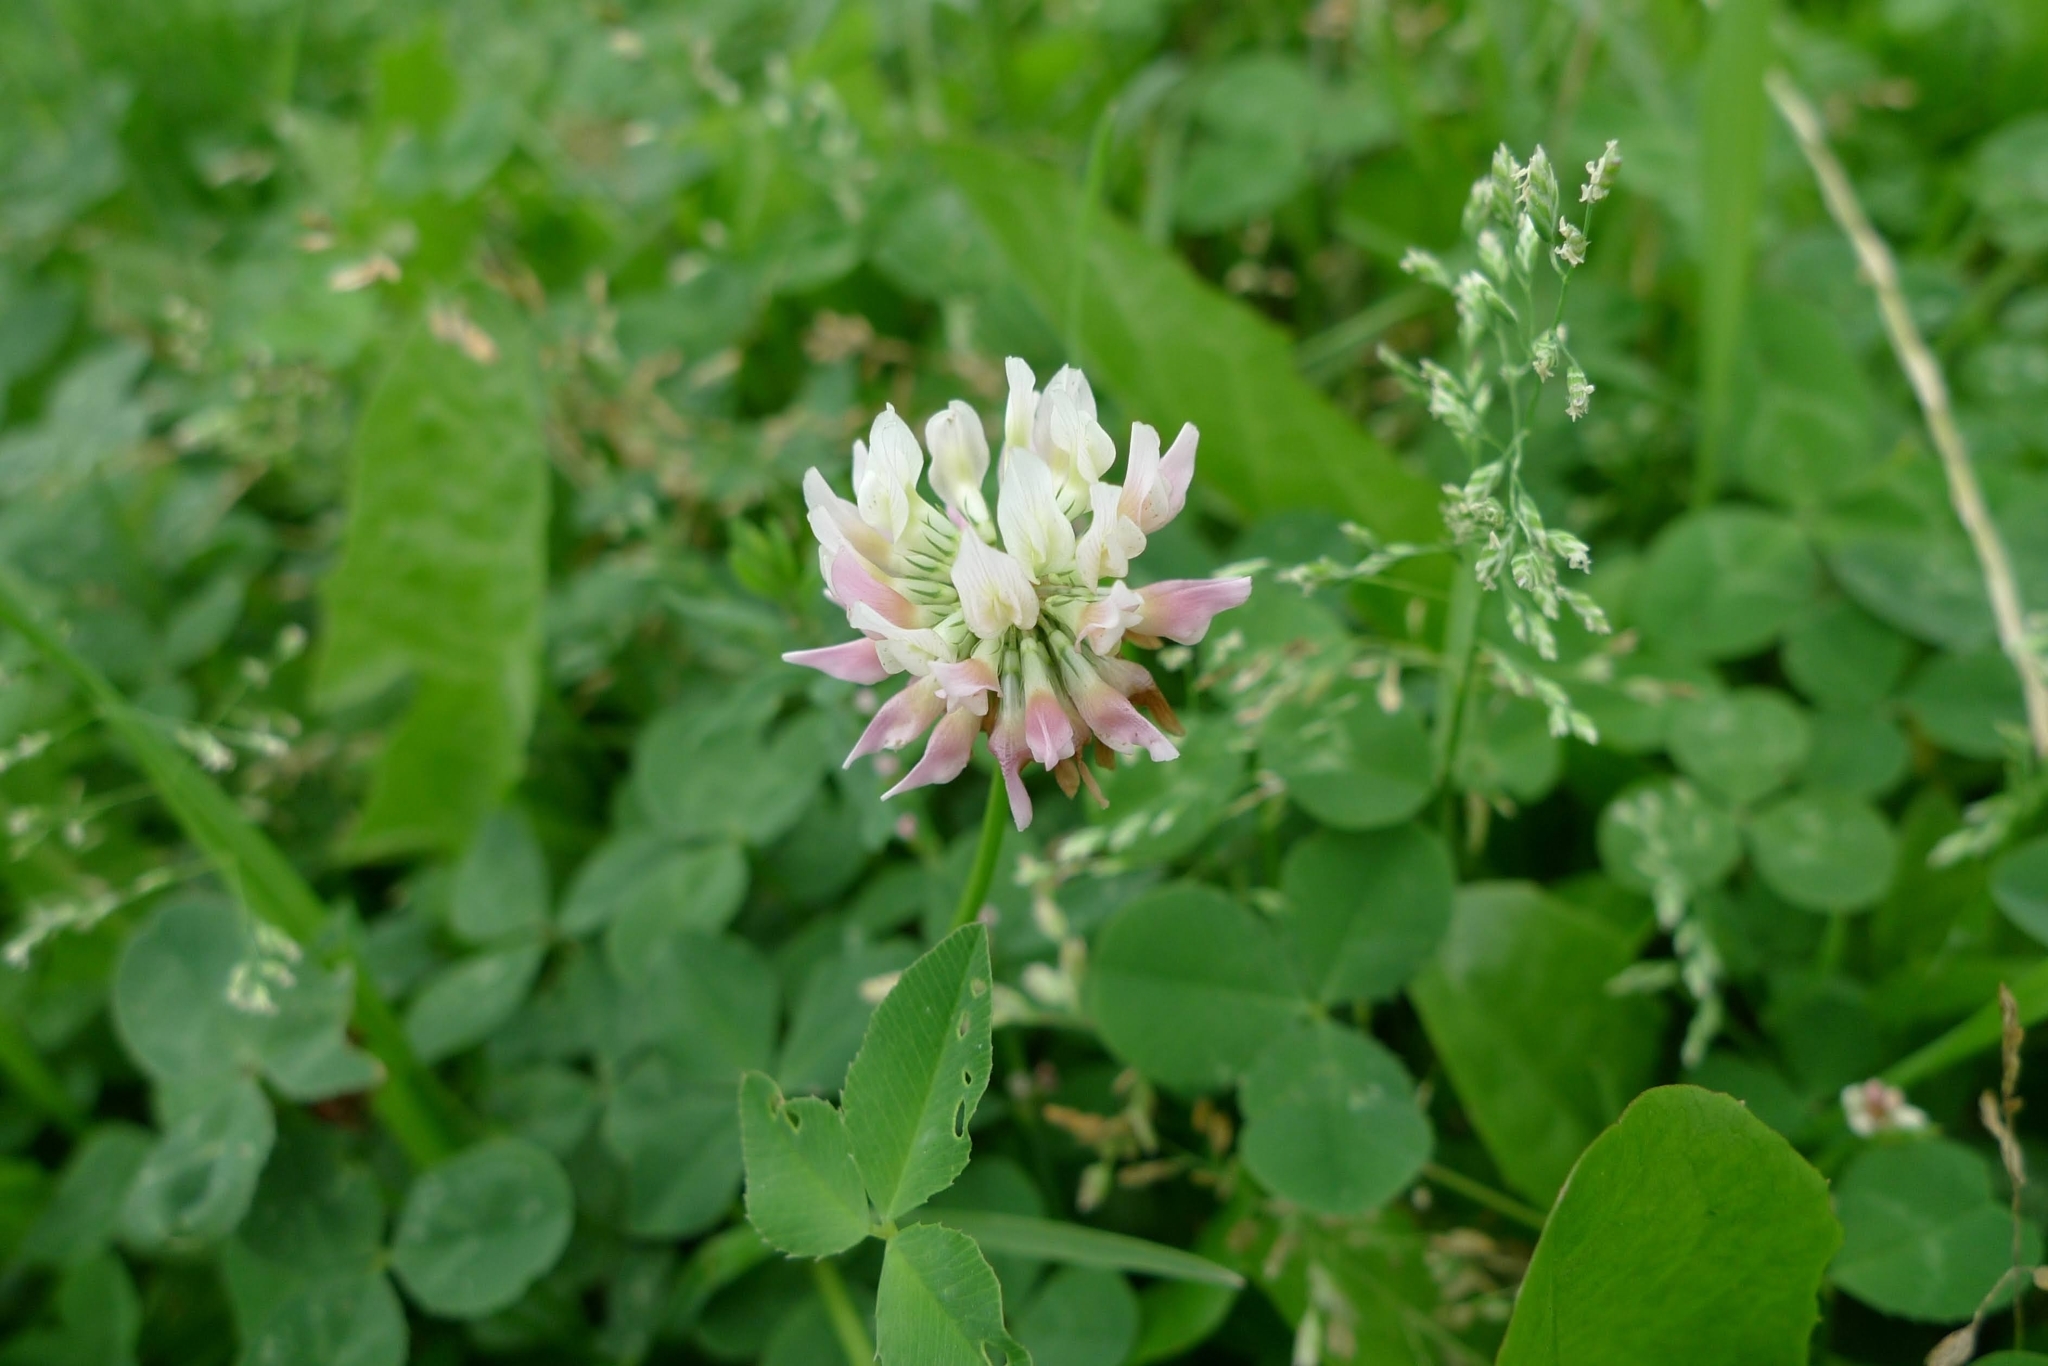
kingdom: Plantae
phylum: Tracheophyta
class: Magnoliopsida
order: Fabales
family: Fabaceae
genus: Trifolium
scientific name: Trifolium hybridum
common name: Alsike clover
